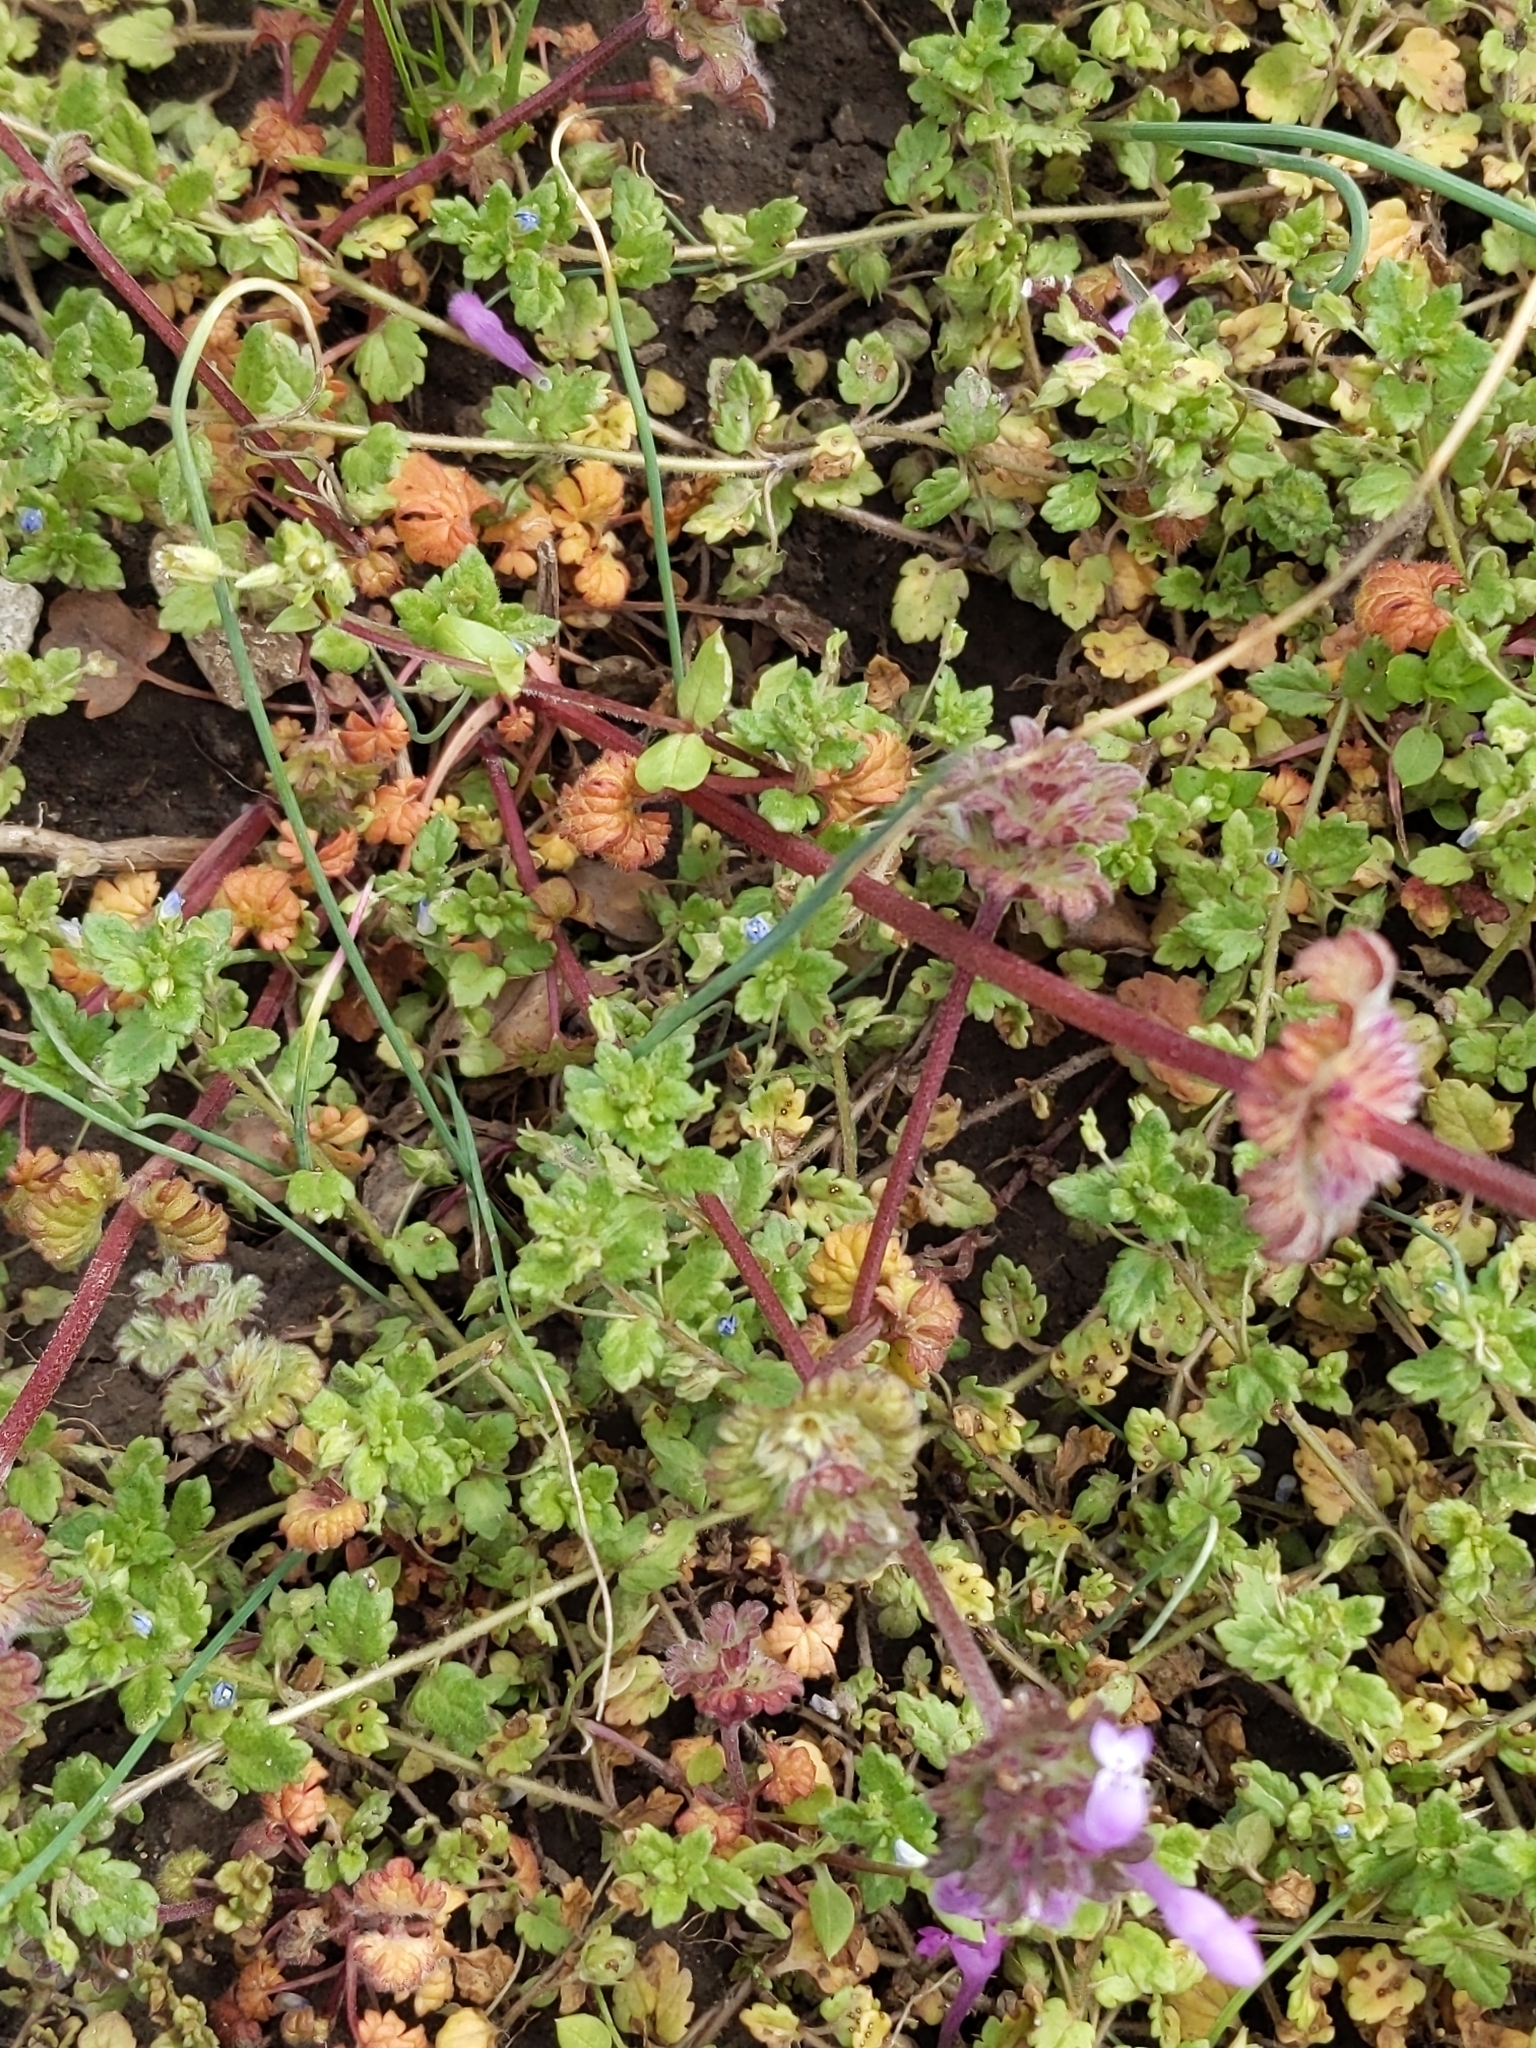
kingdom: Plantae
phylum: Tracheophyta
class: Magnoliopsida
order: Lamiales
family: Lamiaceae
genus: Lamium
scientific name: Lamium amplexicaule
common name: Henbit dead-nettle
